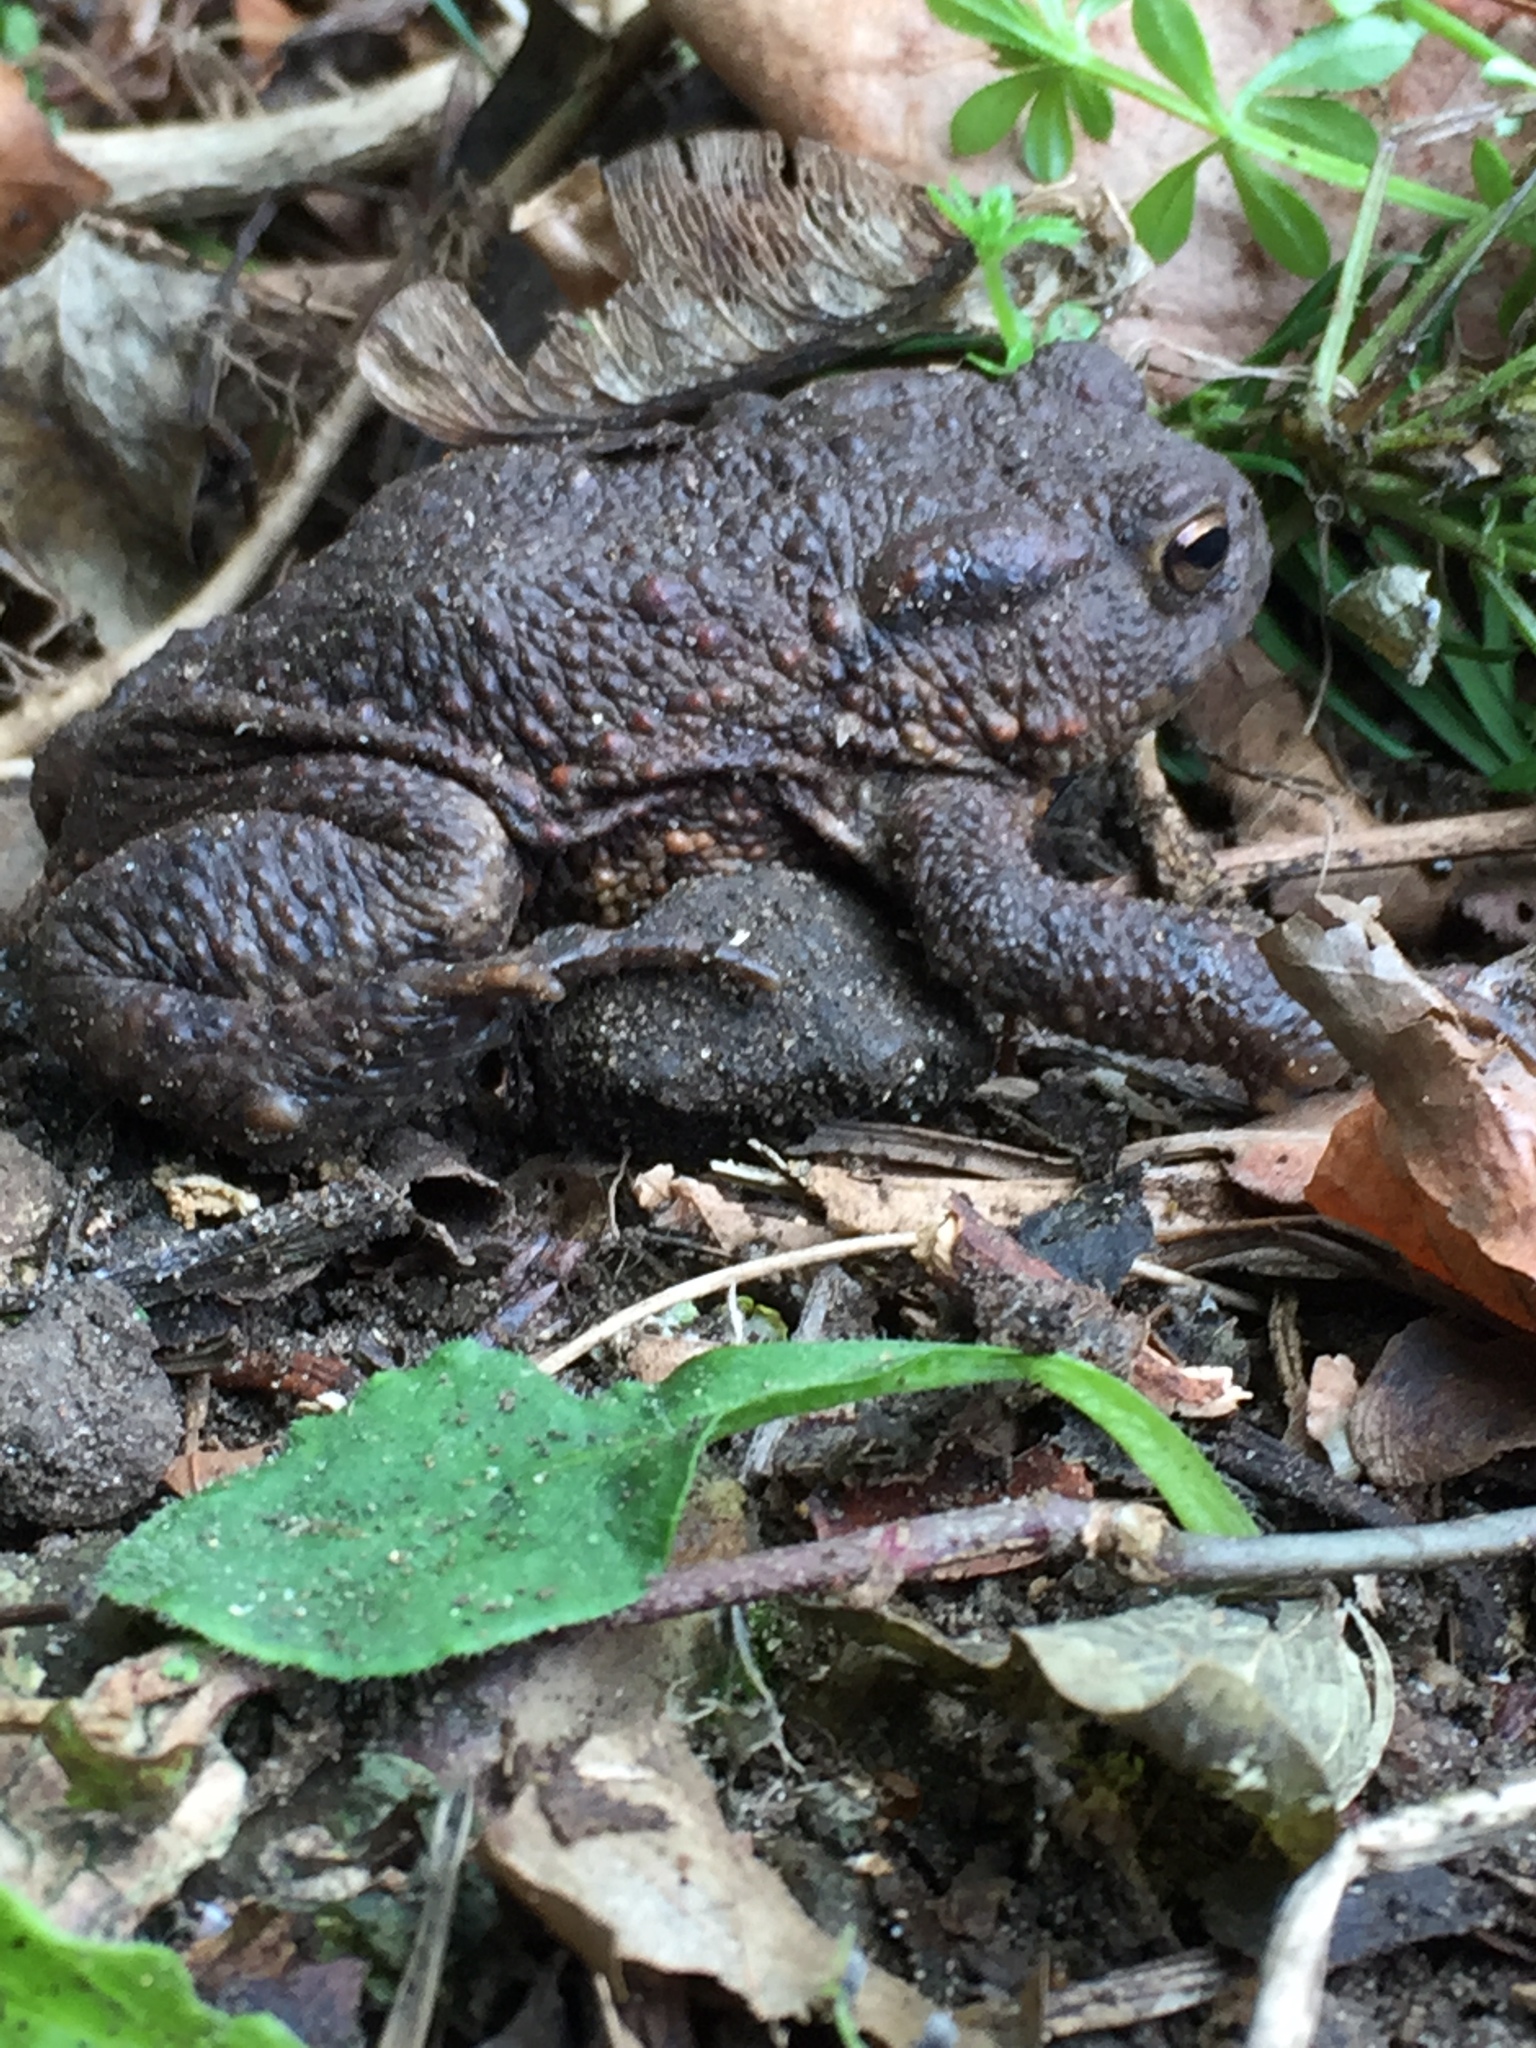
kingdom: Animalia
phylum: Chordata
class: Amphibia
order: Anura
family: Bufonidae
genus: Bufo
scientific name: Bufo bufo
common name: Common toad
